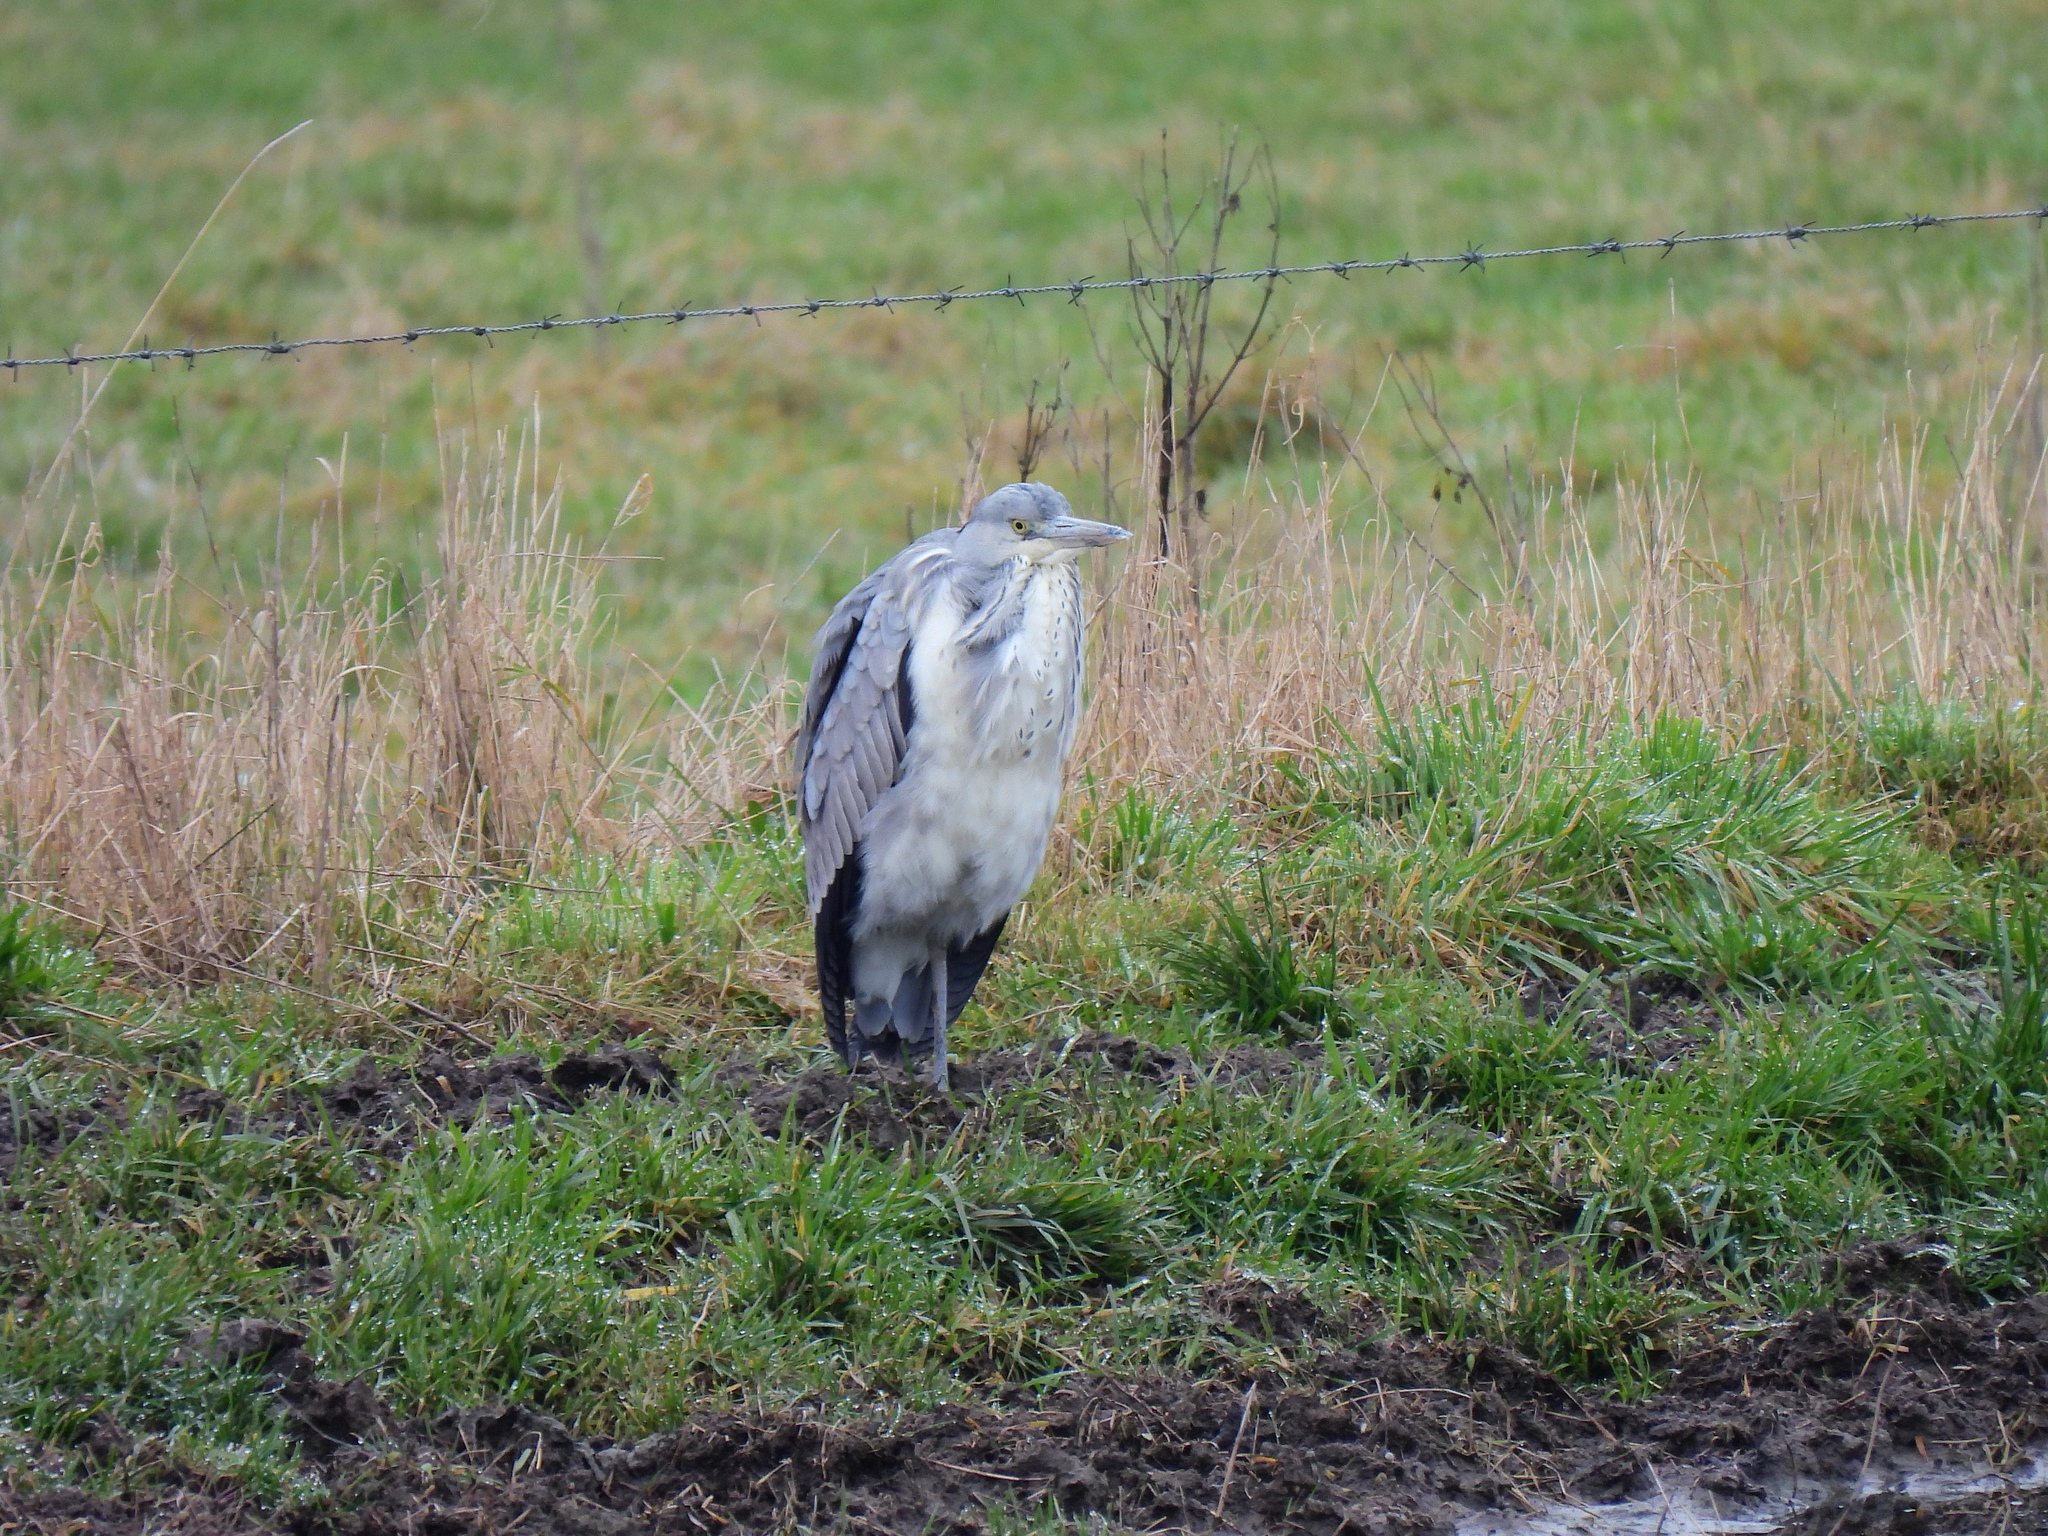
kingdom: Animalia
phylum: Chordata
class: Aves
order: Pelecaniformes
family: Ardeidae
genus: Ardea
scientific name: Ardea cinerea
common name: Grey heron
